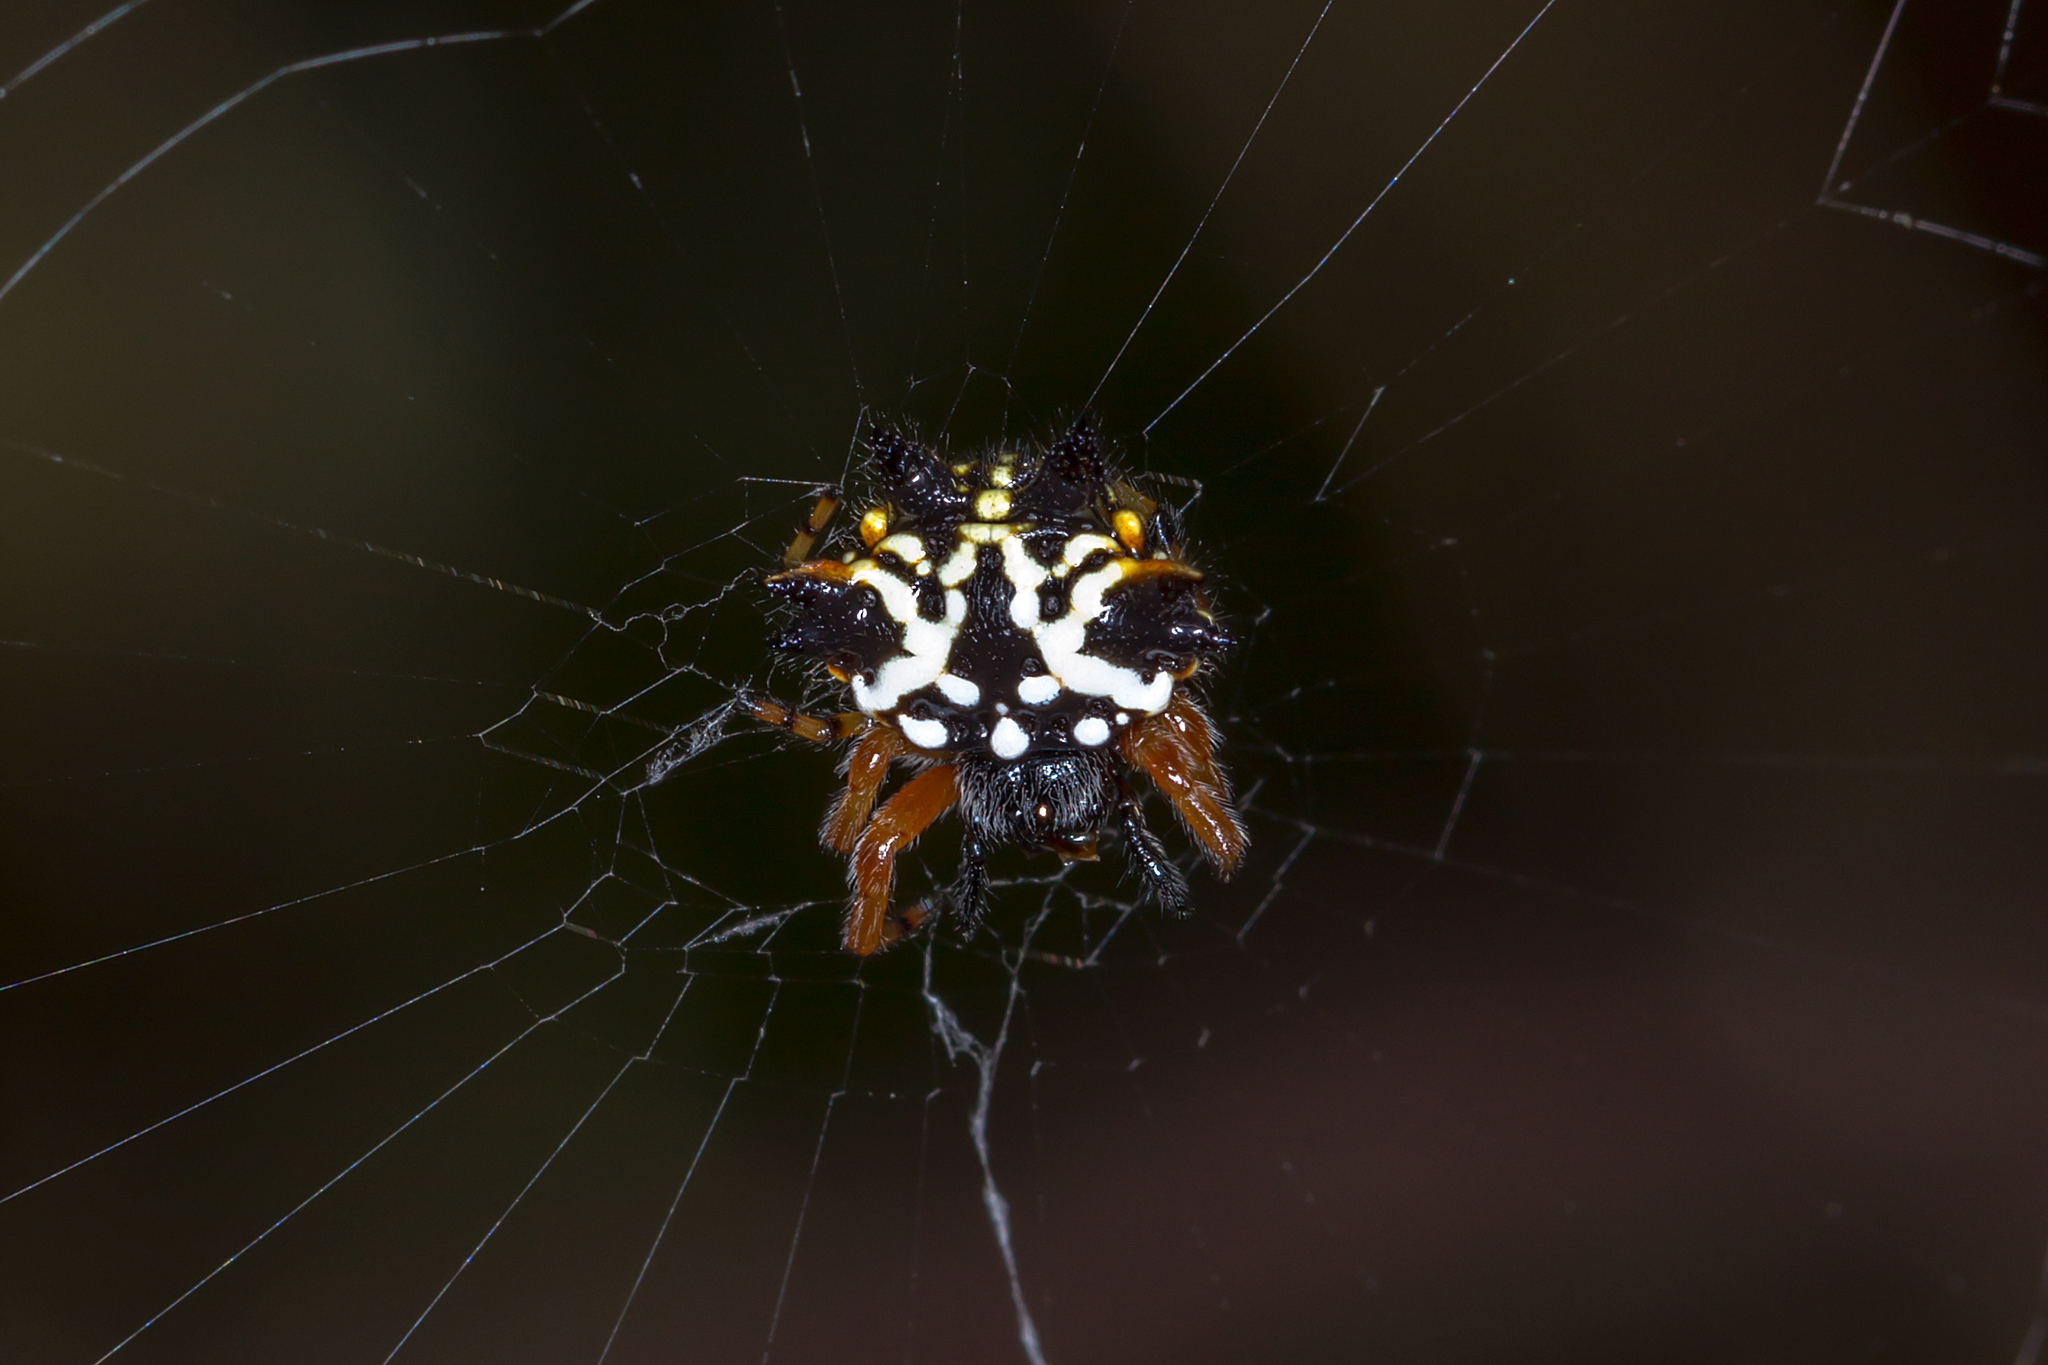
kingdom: Animalia
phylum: Arthropoda
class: Arachnida
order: Araneae
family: Araneidae
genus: Austracantha
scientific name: Austracantha minax
